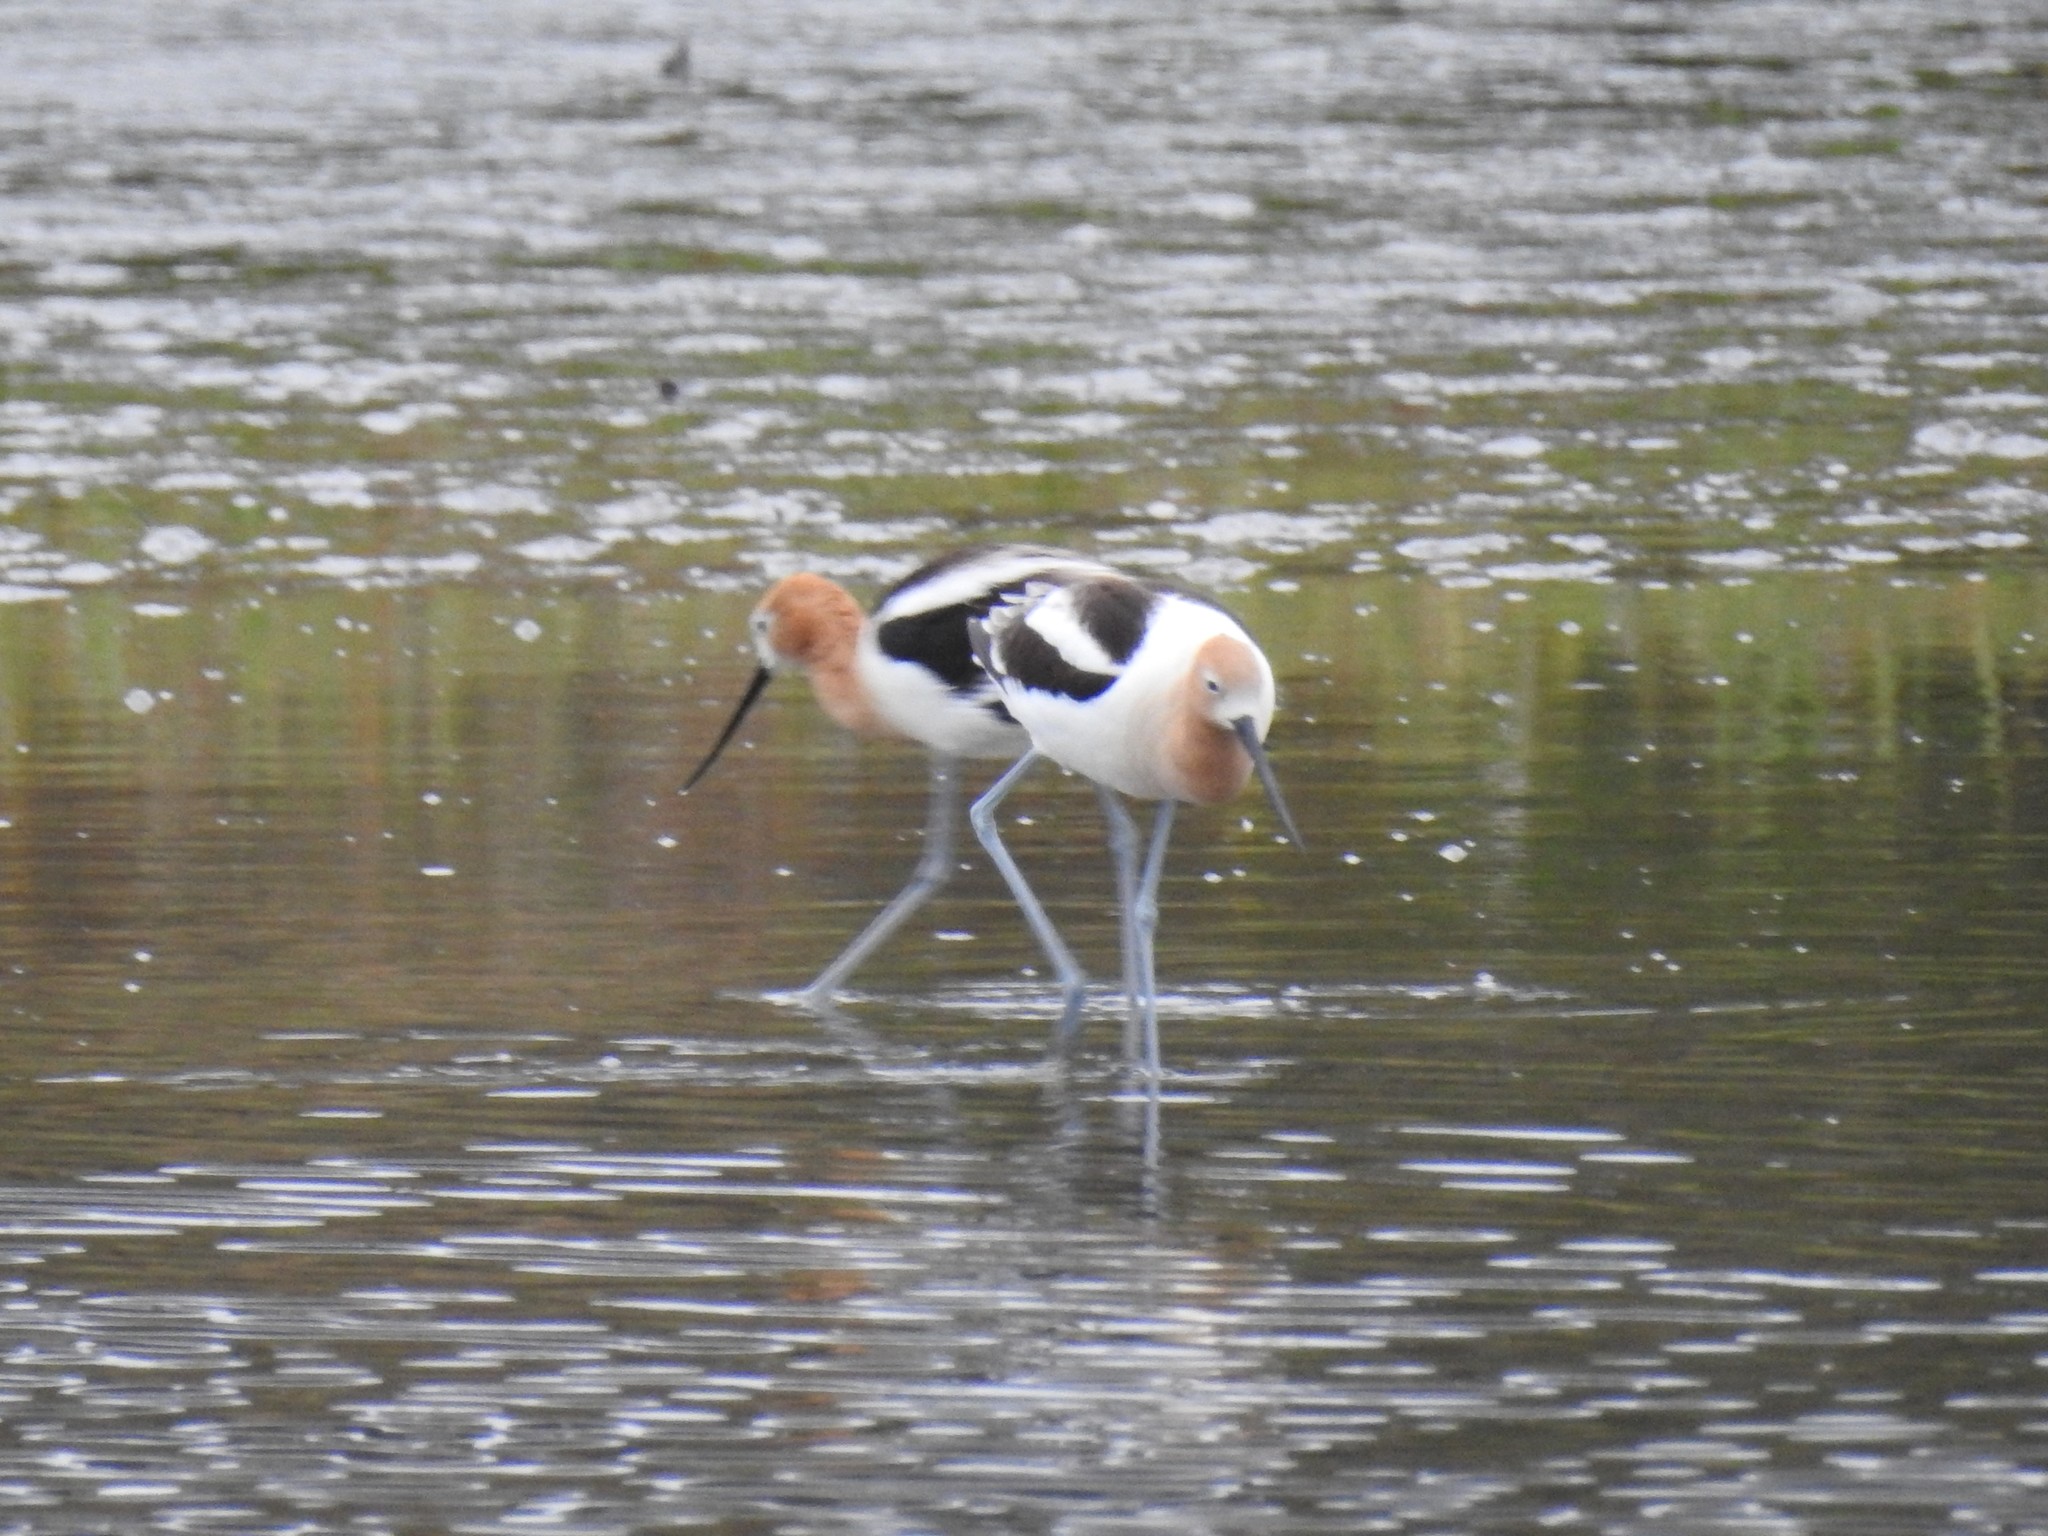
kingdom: Animalia
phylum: Chordata
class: Aves
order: Charadriiformes
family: Recurvirostridae
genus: Recurvirostra
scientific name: Recurvirostra americana
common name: American avocet
